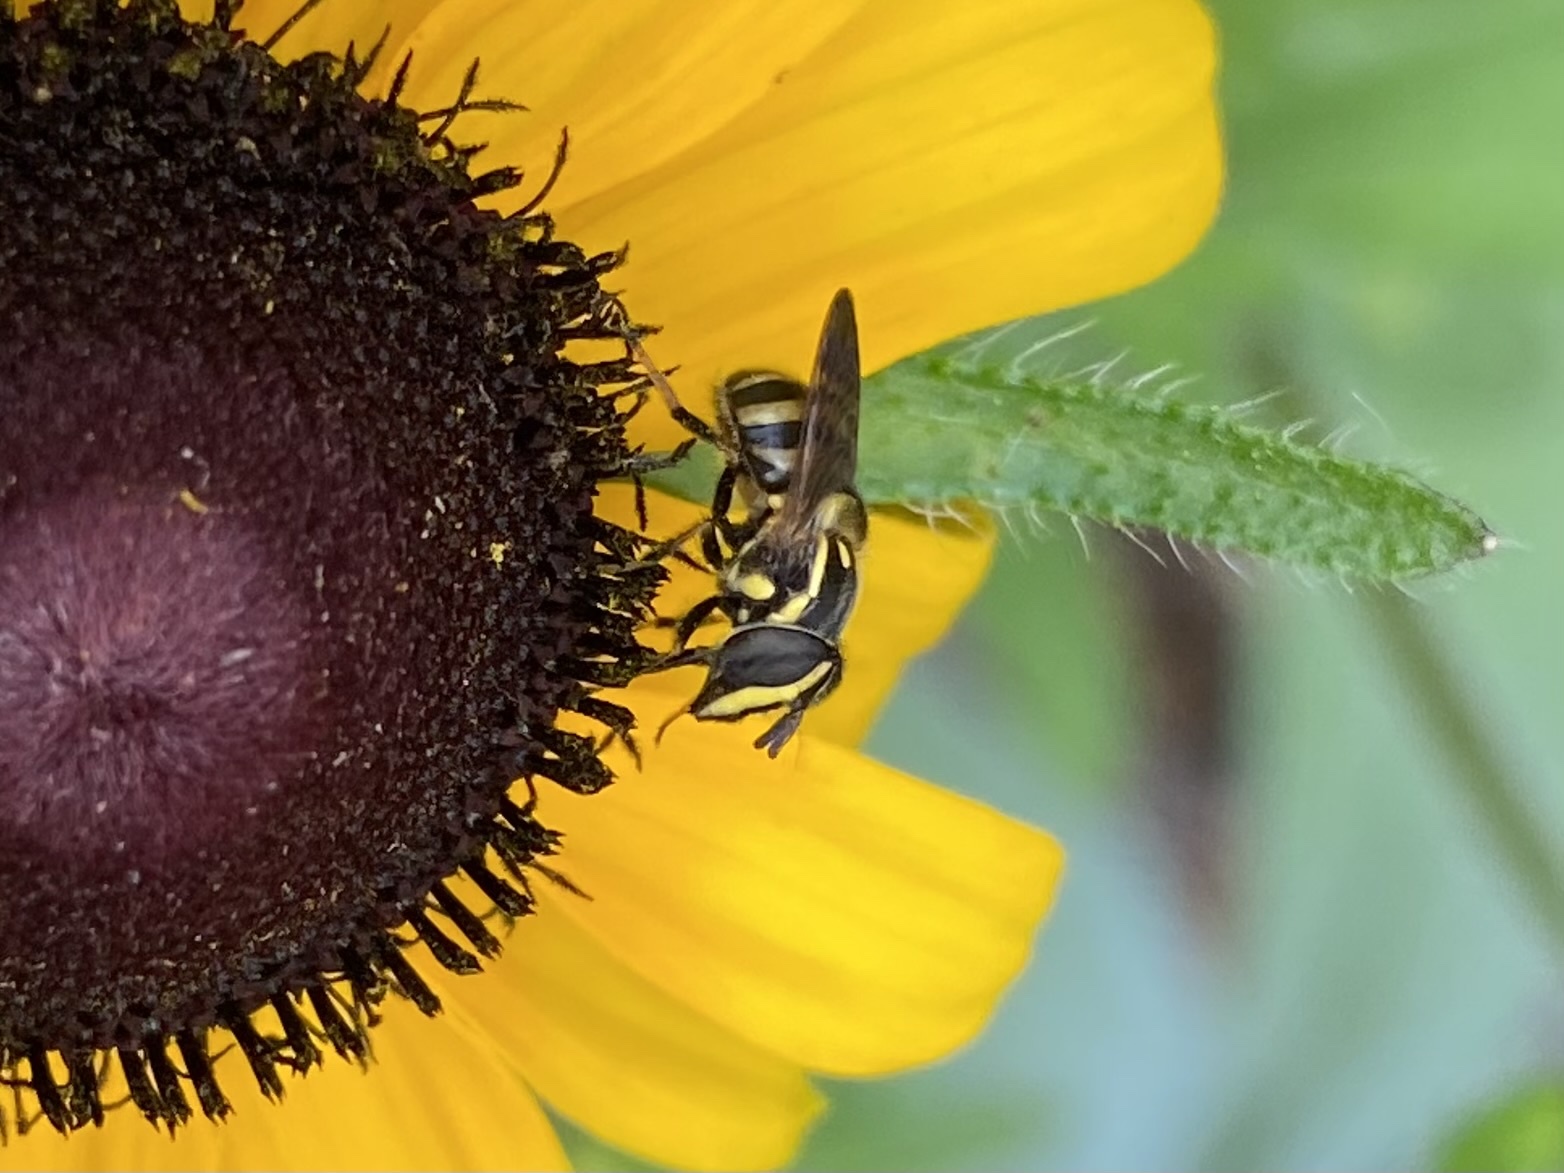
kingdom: Animalia
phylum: Arthropoda
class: Insecta
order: Diptera
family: Syrphidae
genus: Copestylum
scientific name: Copestylum vittatum
